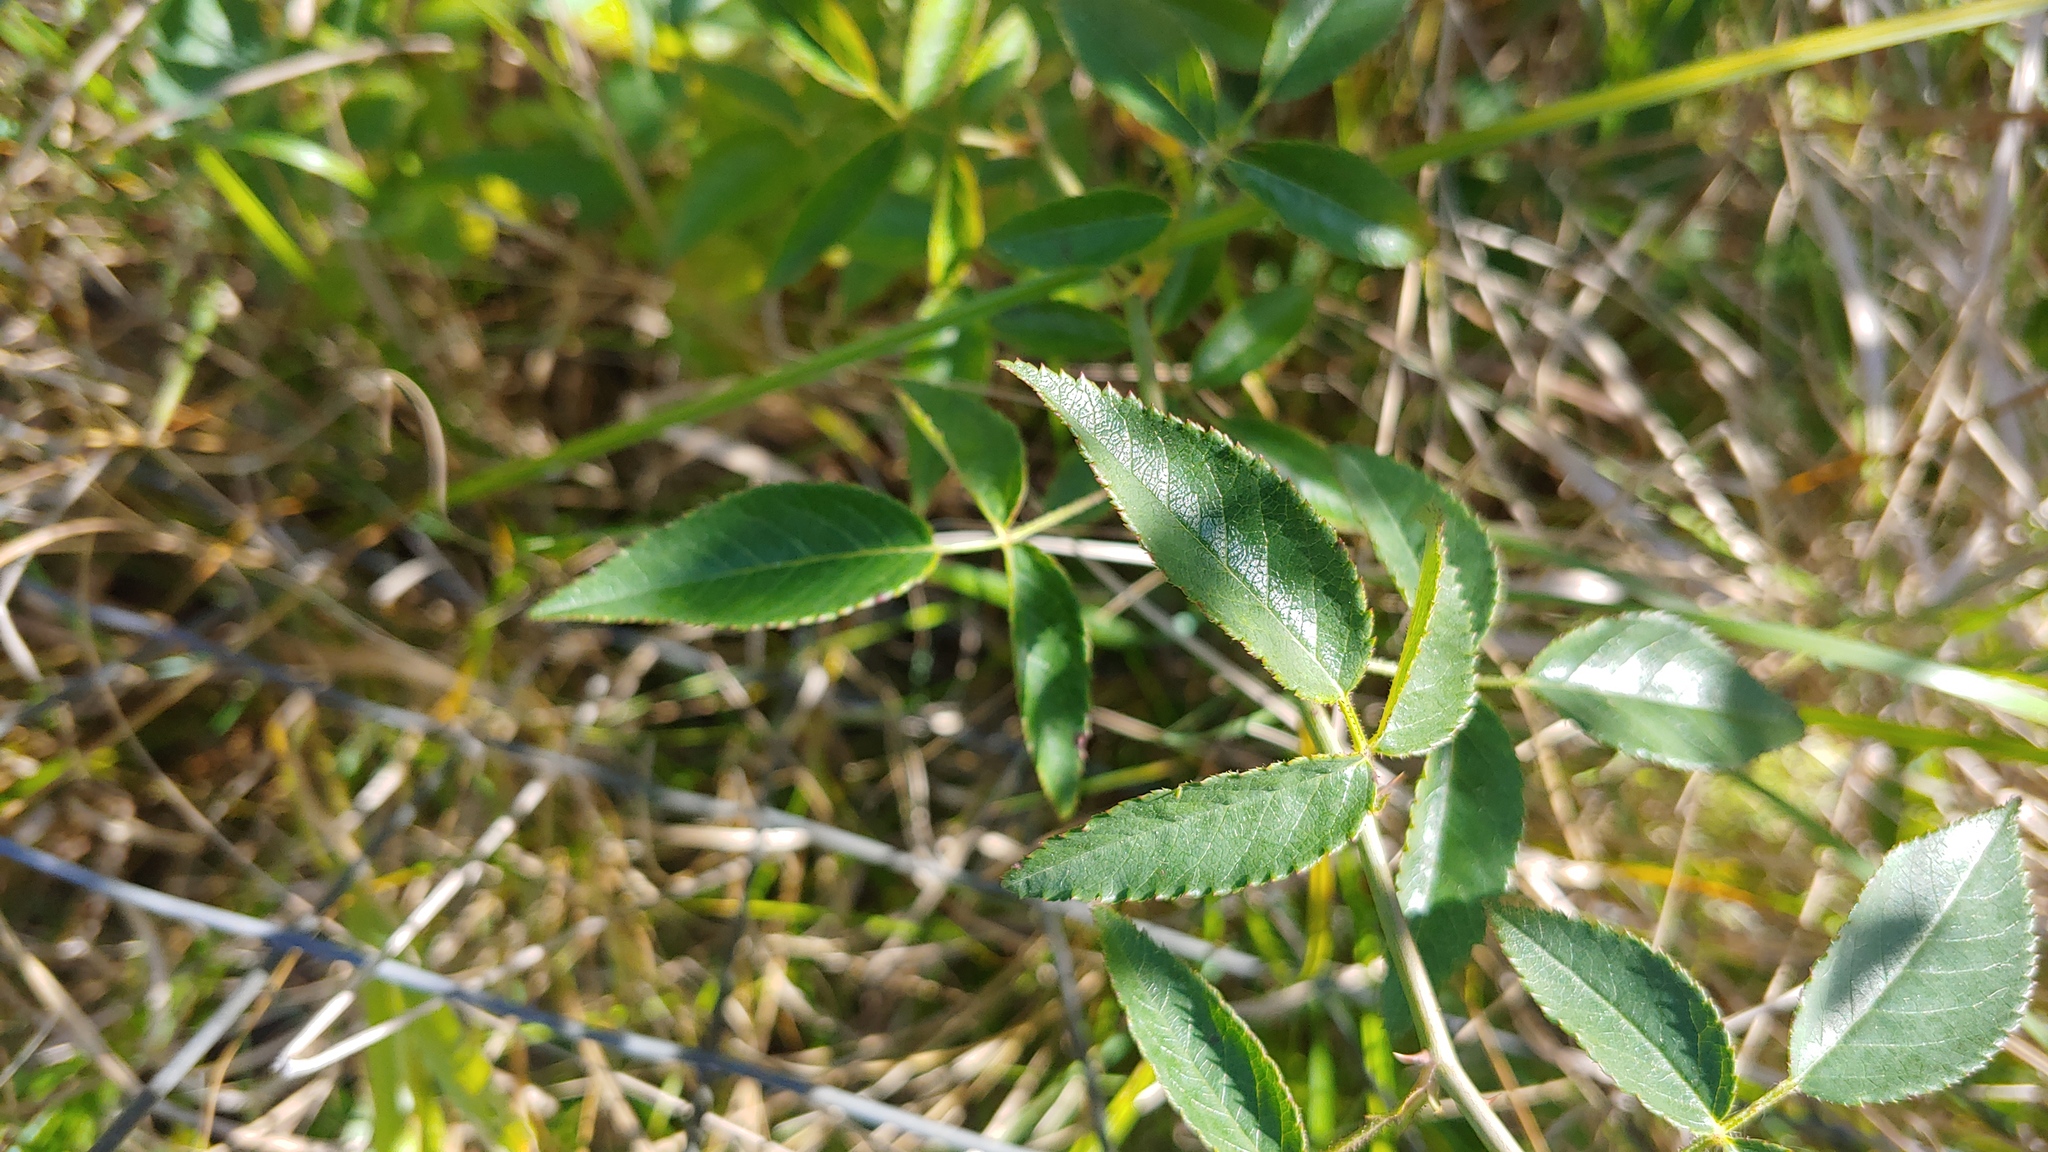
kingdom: Plantae
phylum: Tracheophyta
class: Magnoliopsida
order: Rosales
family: Rosaceae
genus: Rosa
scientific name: Rosa palustris
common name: Swamp rose
